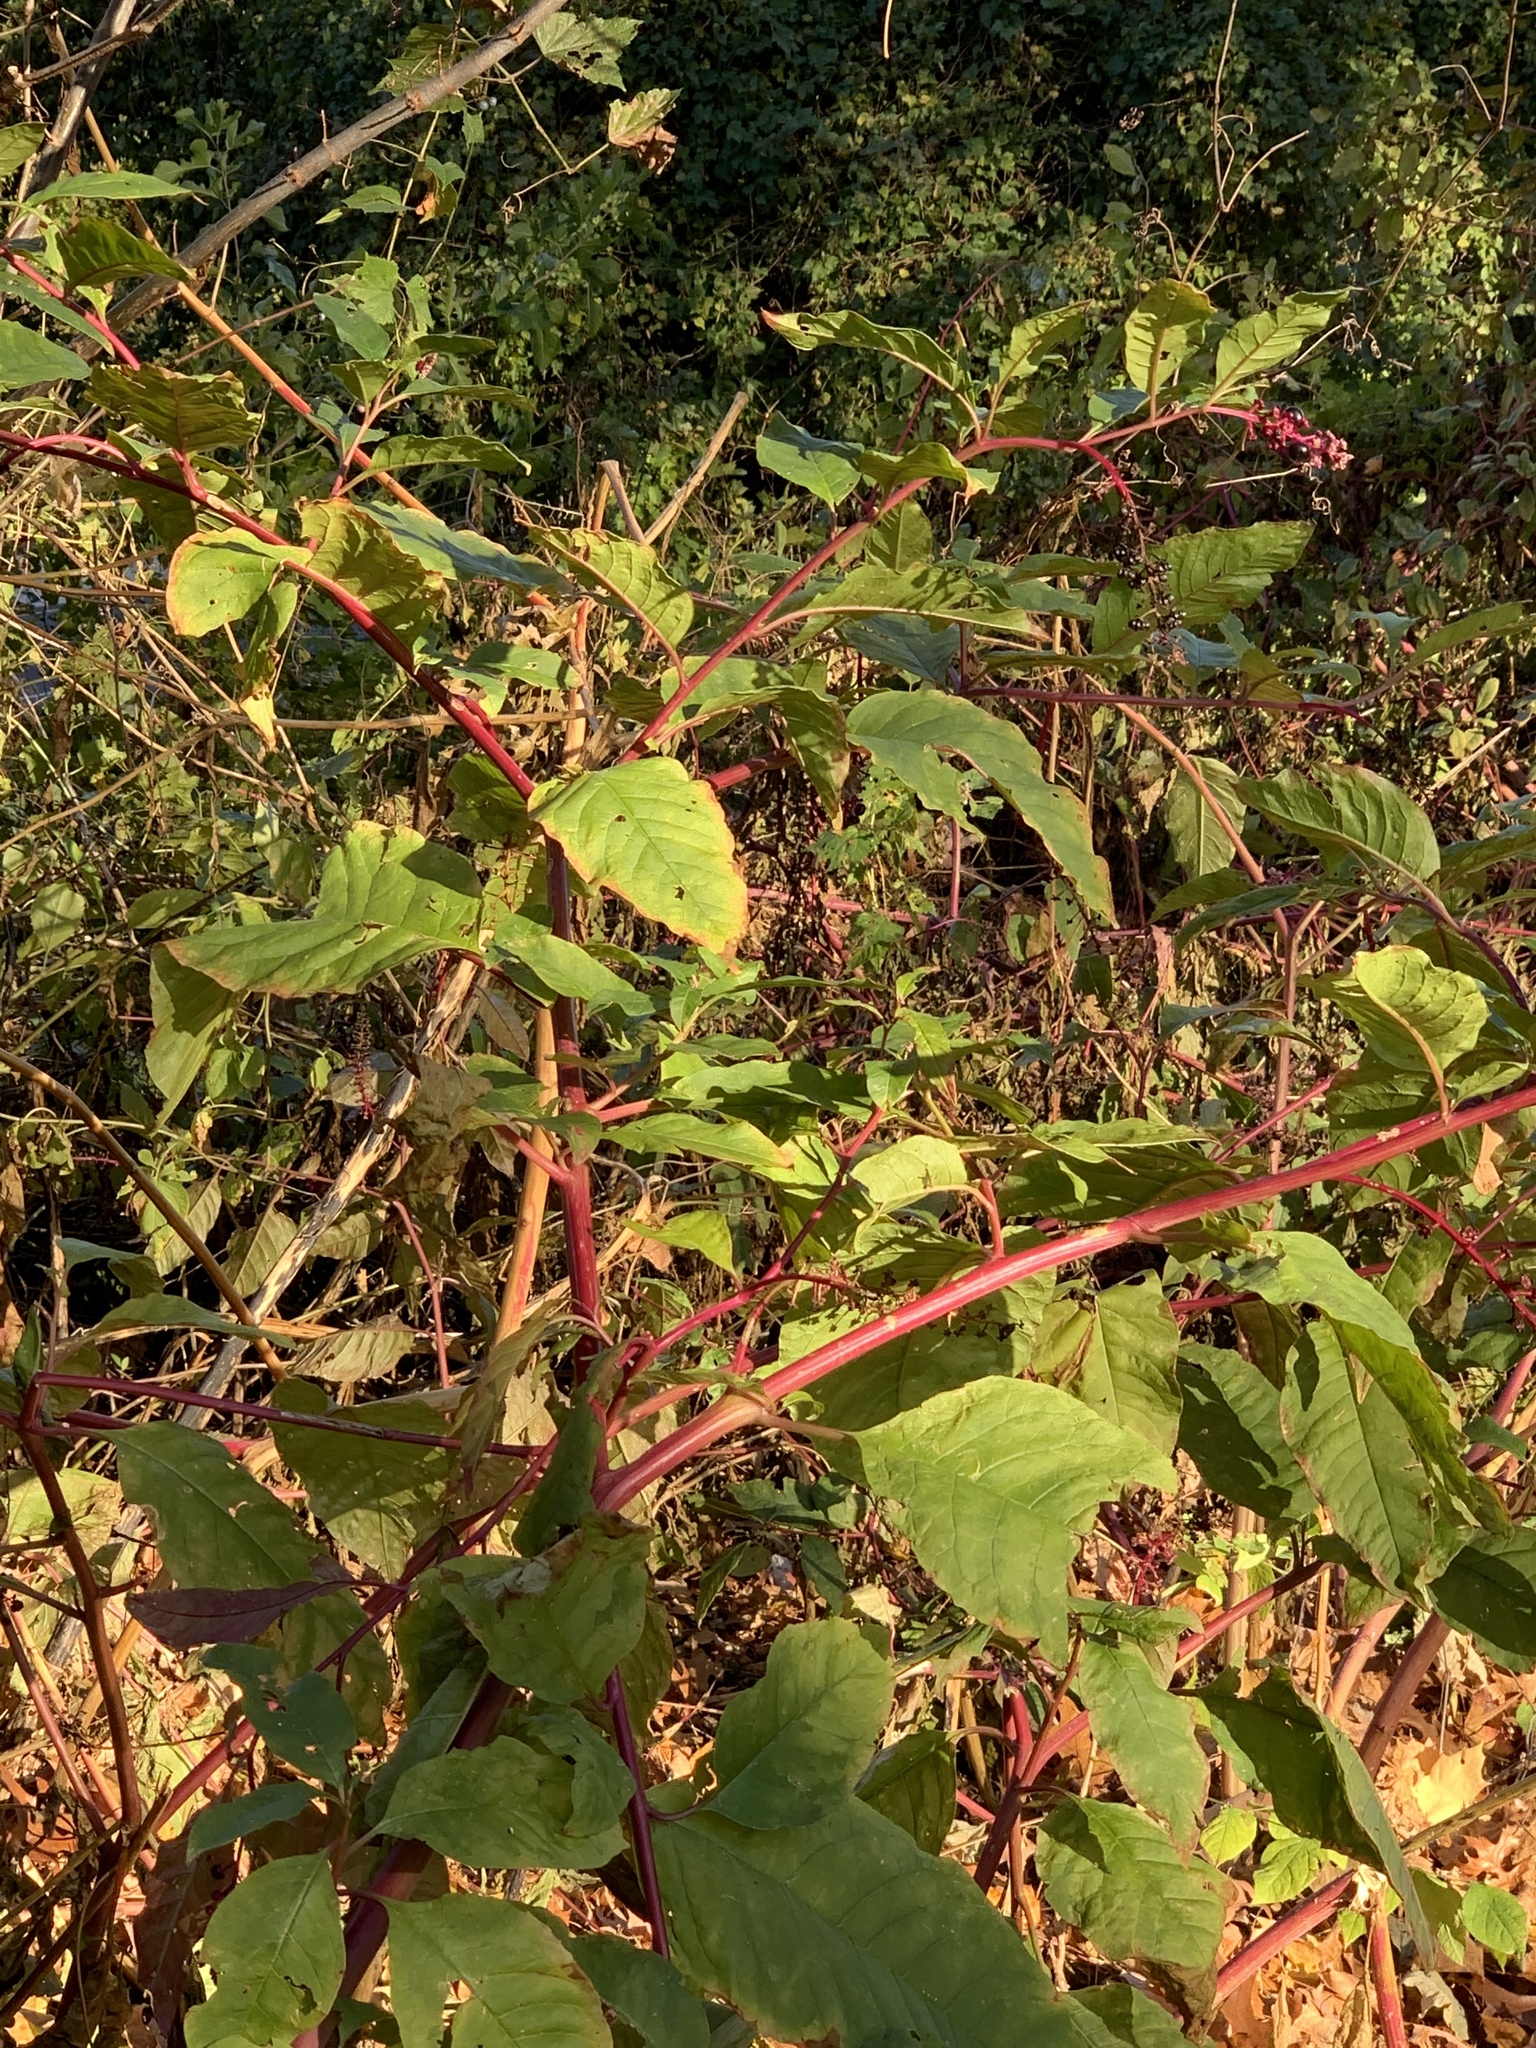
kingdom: Plantae
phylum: Tracheophyta
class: Magnoliopsida
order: Caryophyllales
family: Phytolaccaceae
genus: Phytolacca
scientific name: Phytolacca americana
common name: American pokeweed
